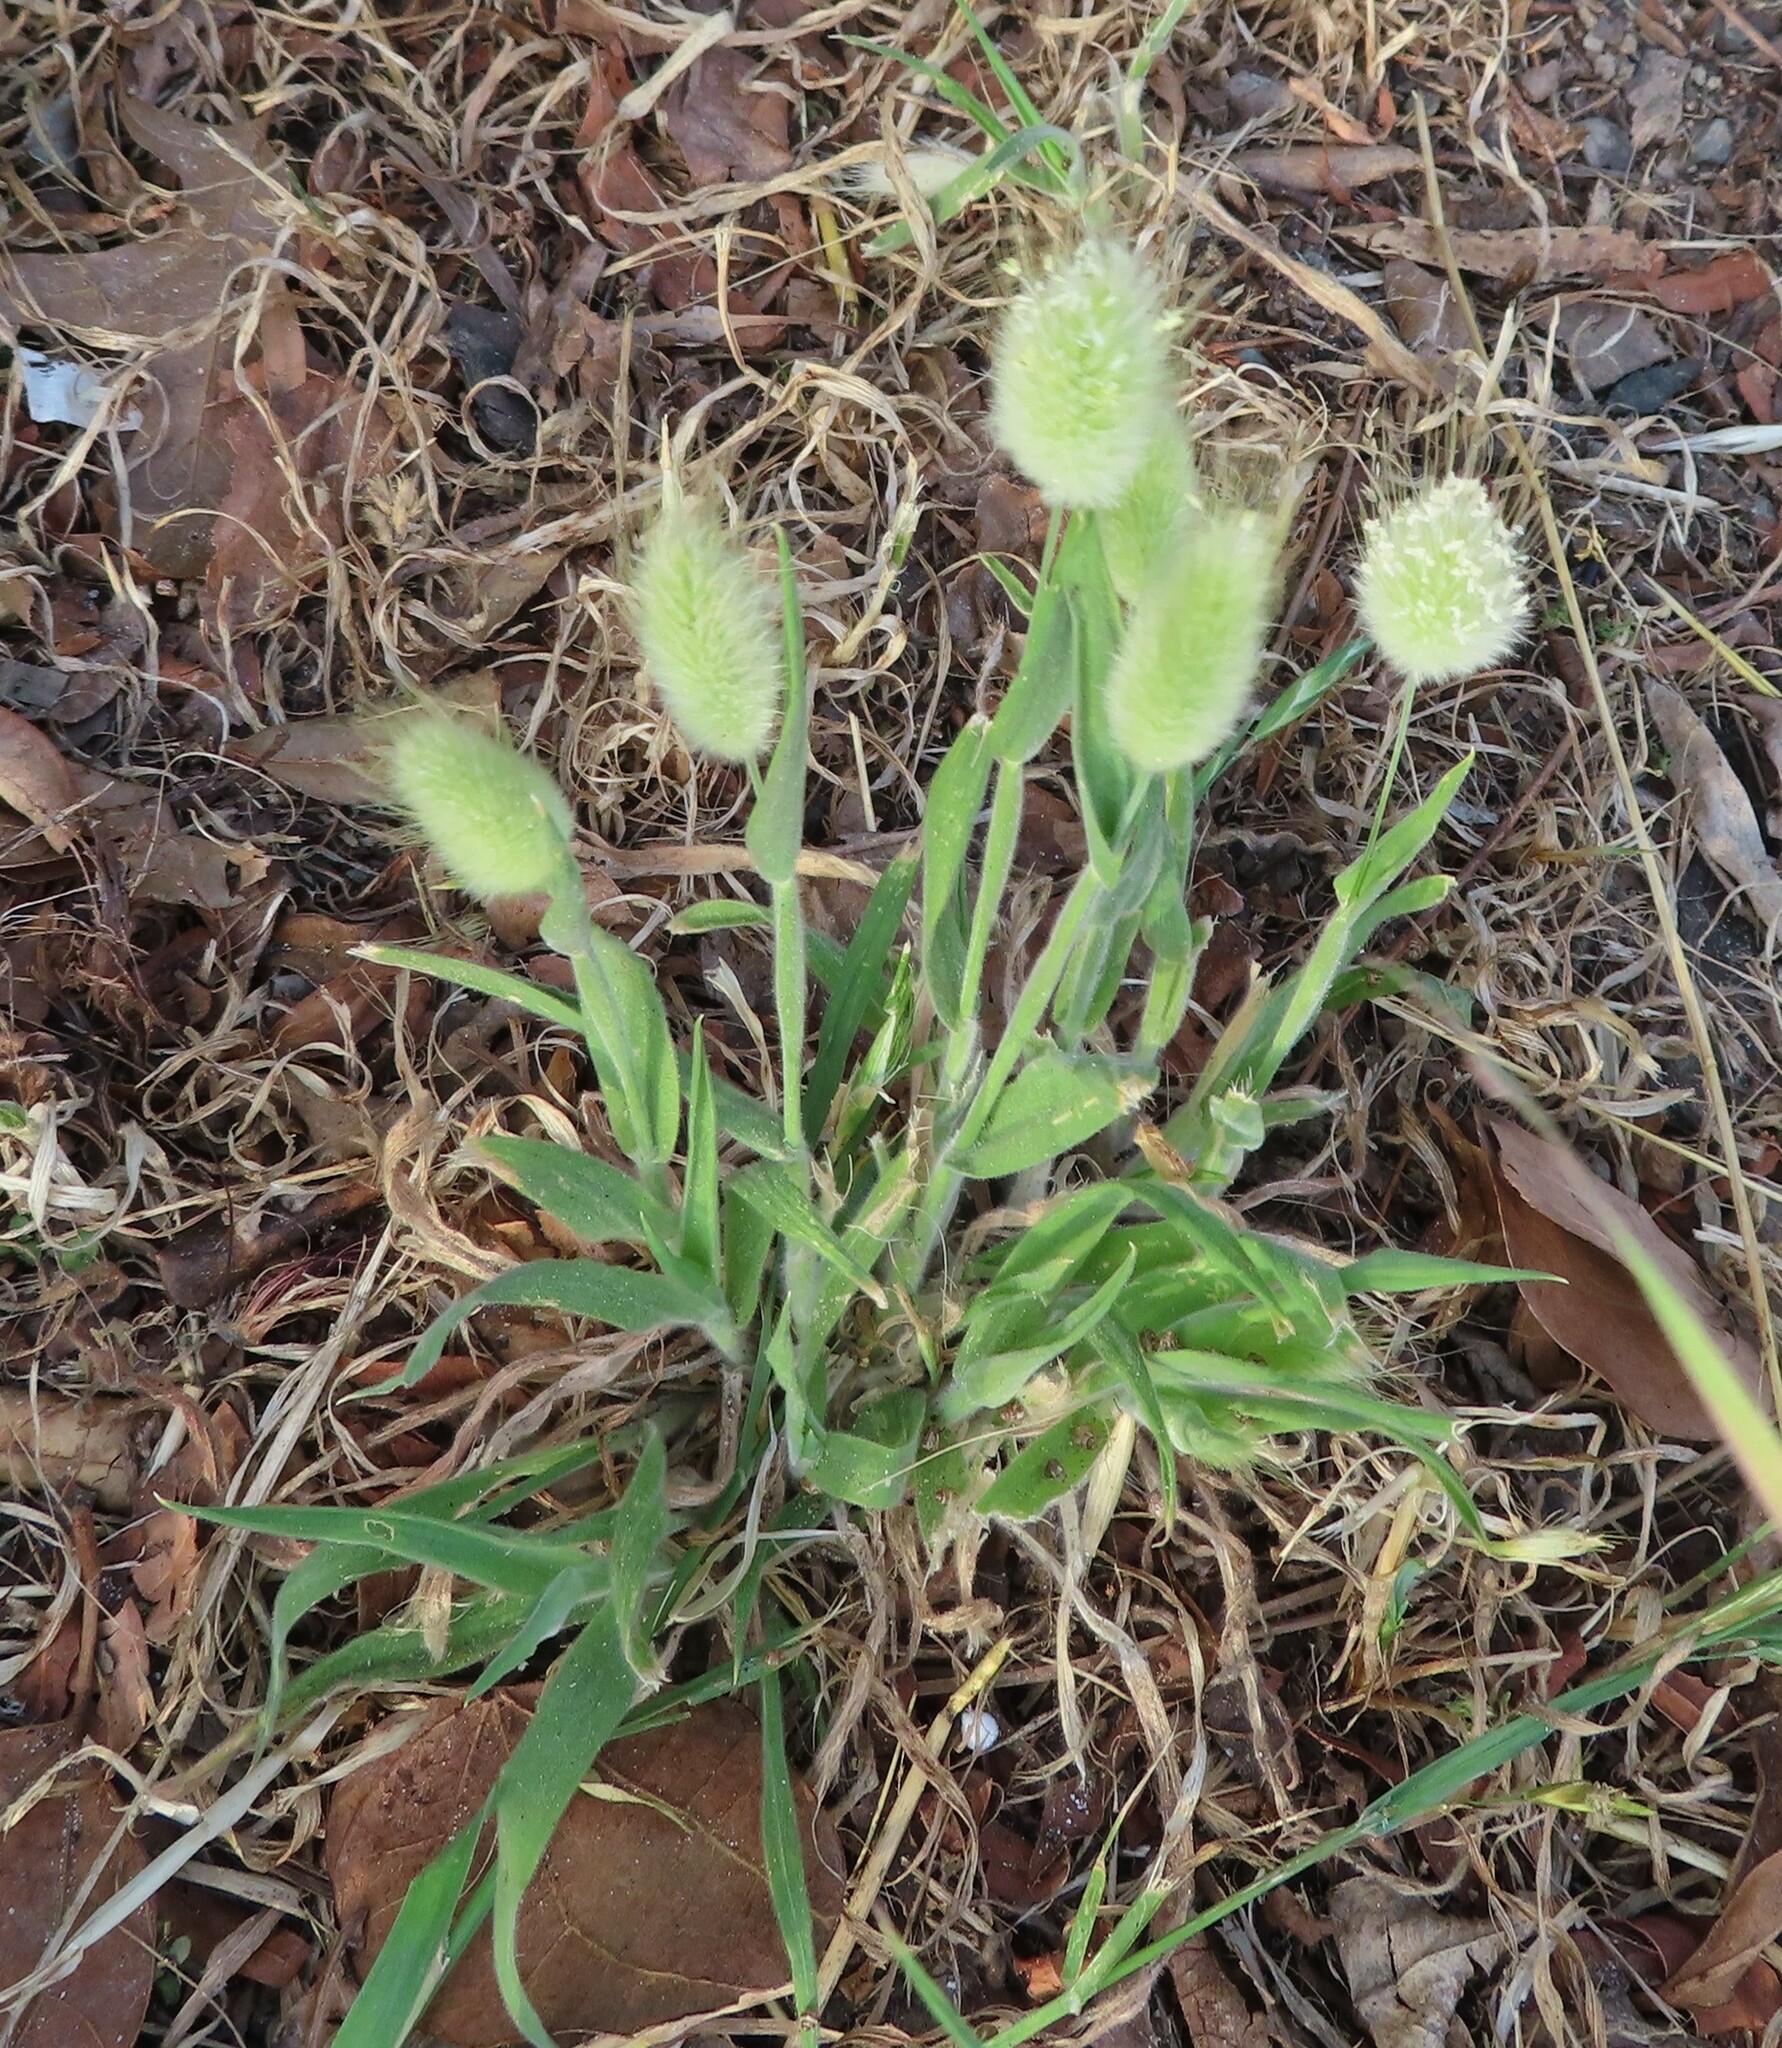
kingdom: Plantae
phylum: Tracheophyta
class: Liliopsida
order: Poales
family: Poaceae
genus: Lagurus
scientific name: Lagurus ovatus
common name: Hare's-tail
